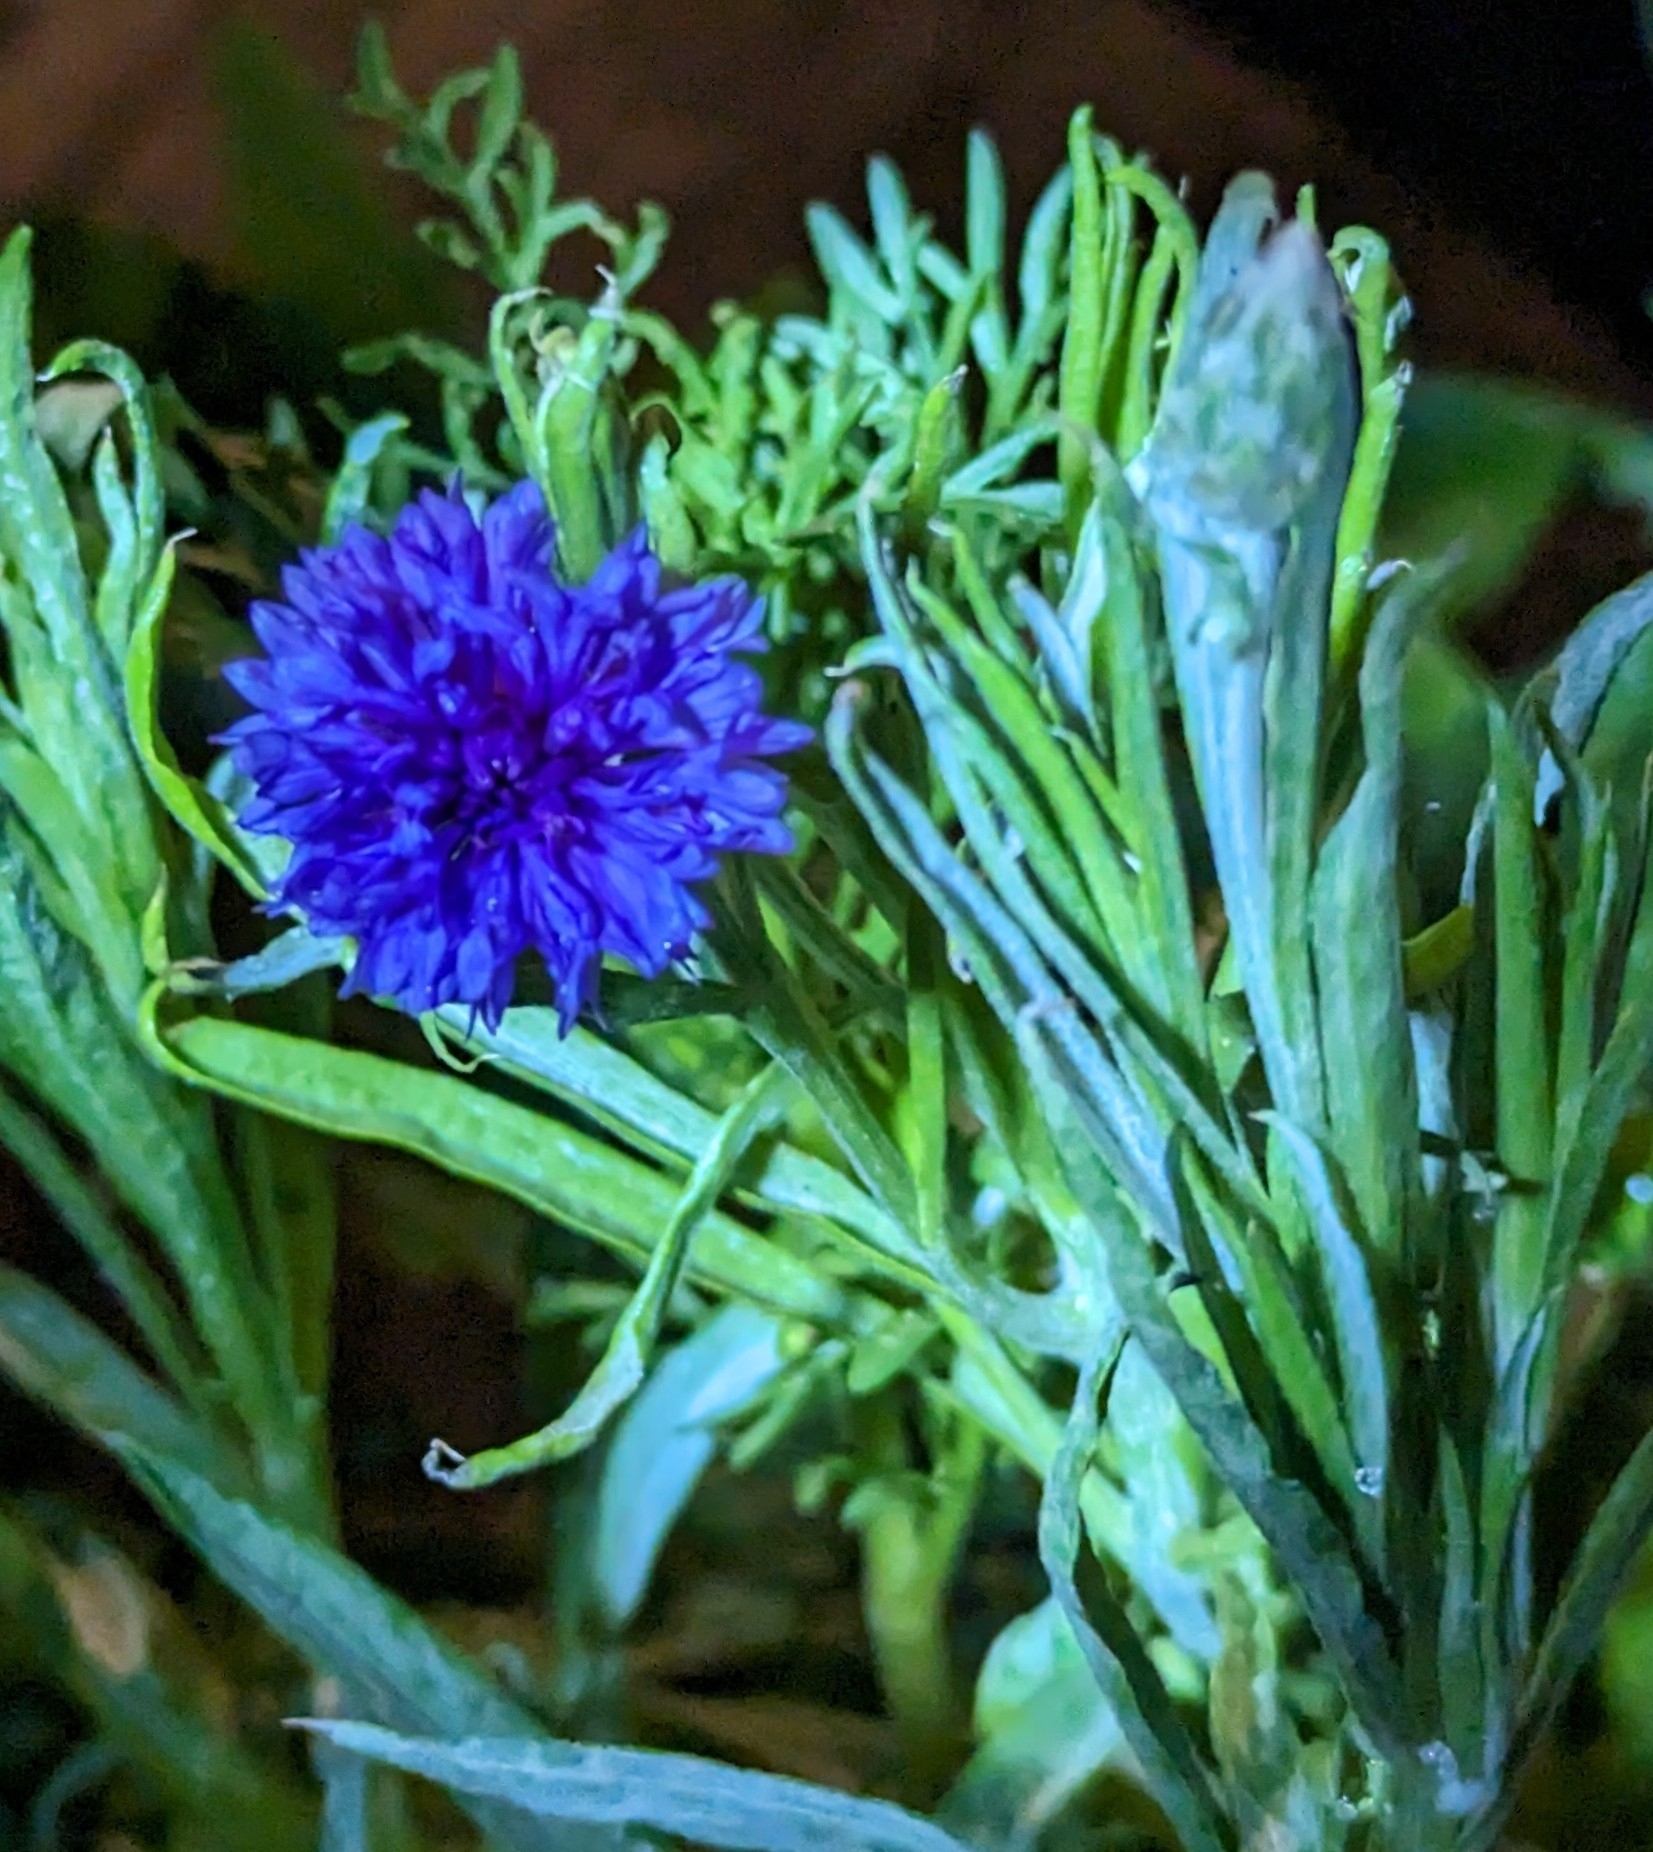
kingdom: Plantae
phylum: Tracheophyta
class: Magnoliopsida
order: Asterales
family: Asteraceae
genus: Centaurea
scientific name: Centaurea cyanus
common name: Cornflower
